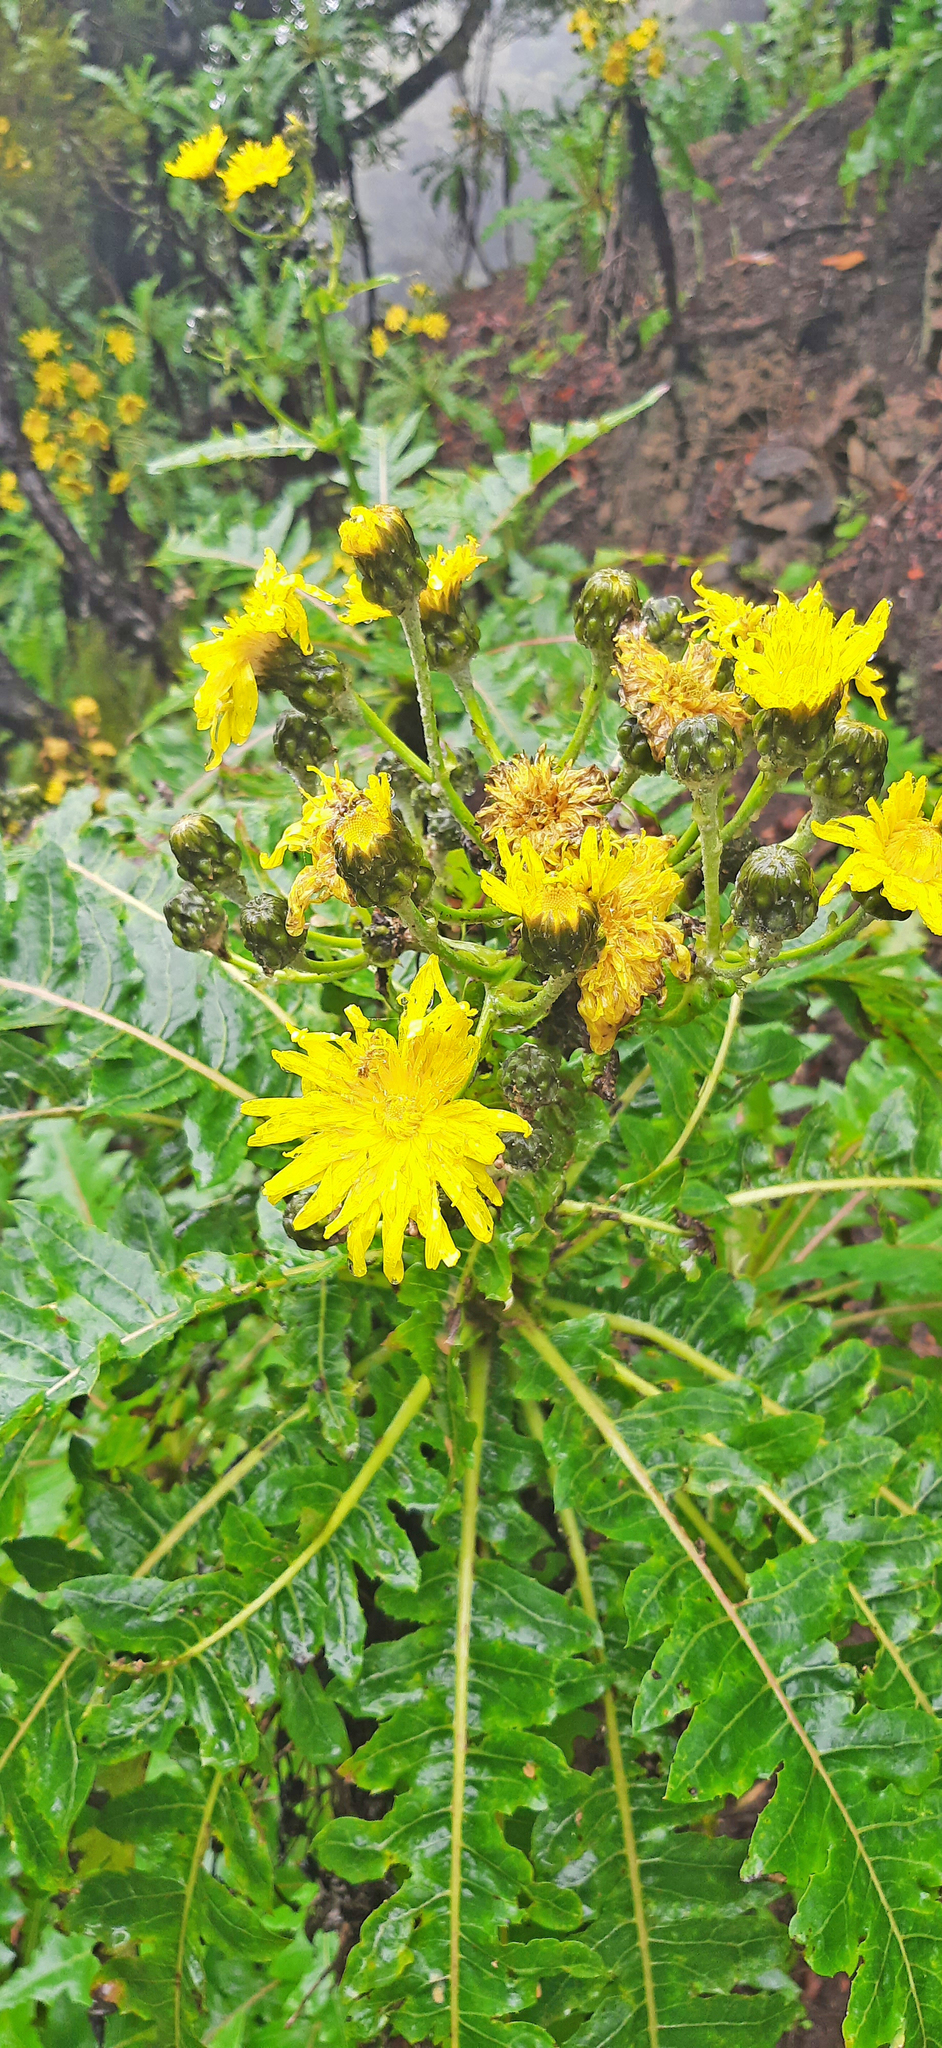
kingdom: Plantae
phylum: Tracheophyta
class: Magnoliopsida
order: Asterales
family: Asteraceae
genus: Sonchus
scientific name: Sonchus hierrensis
